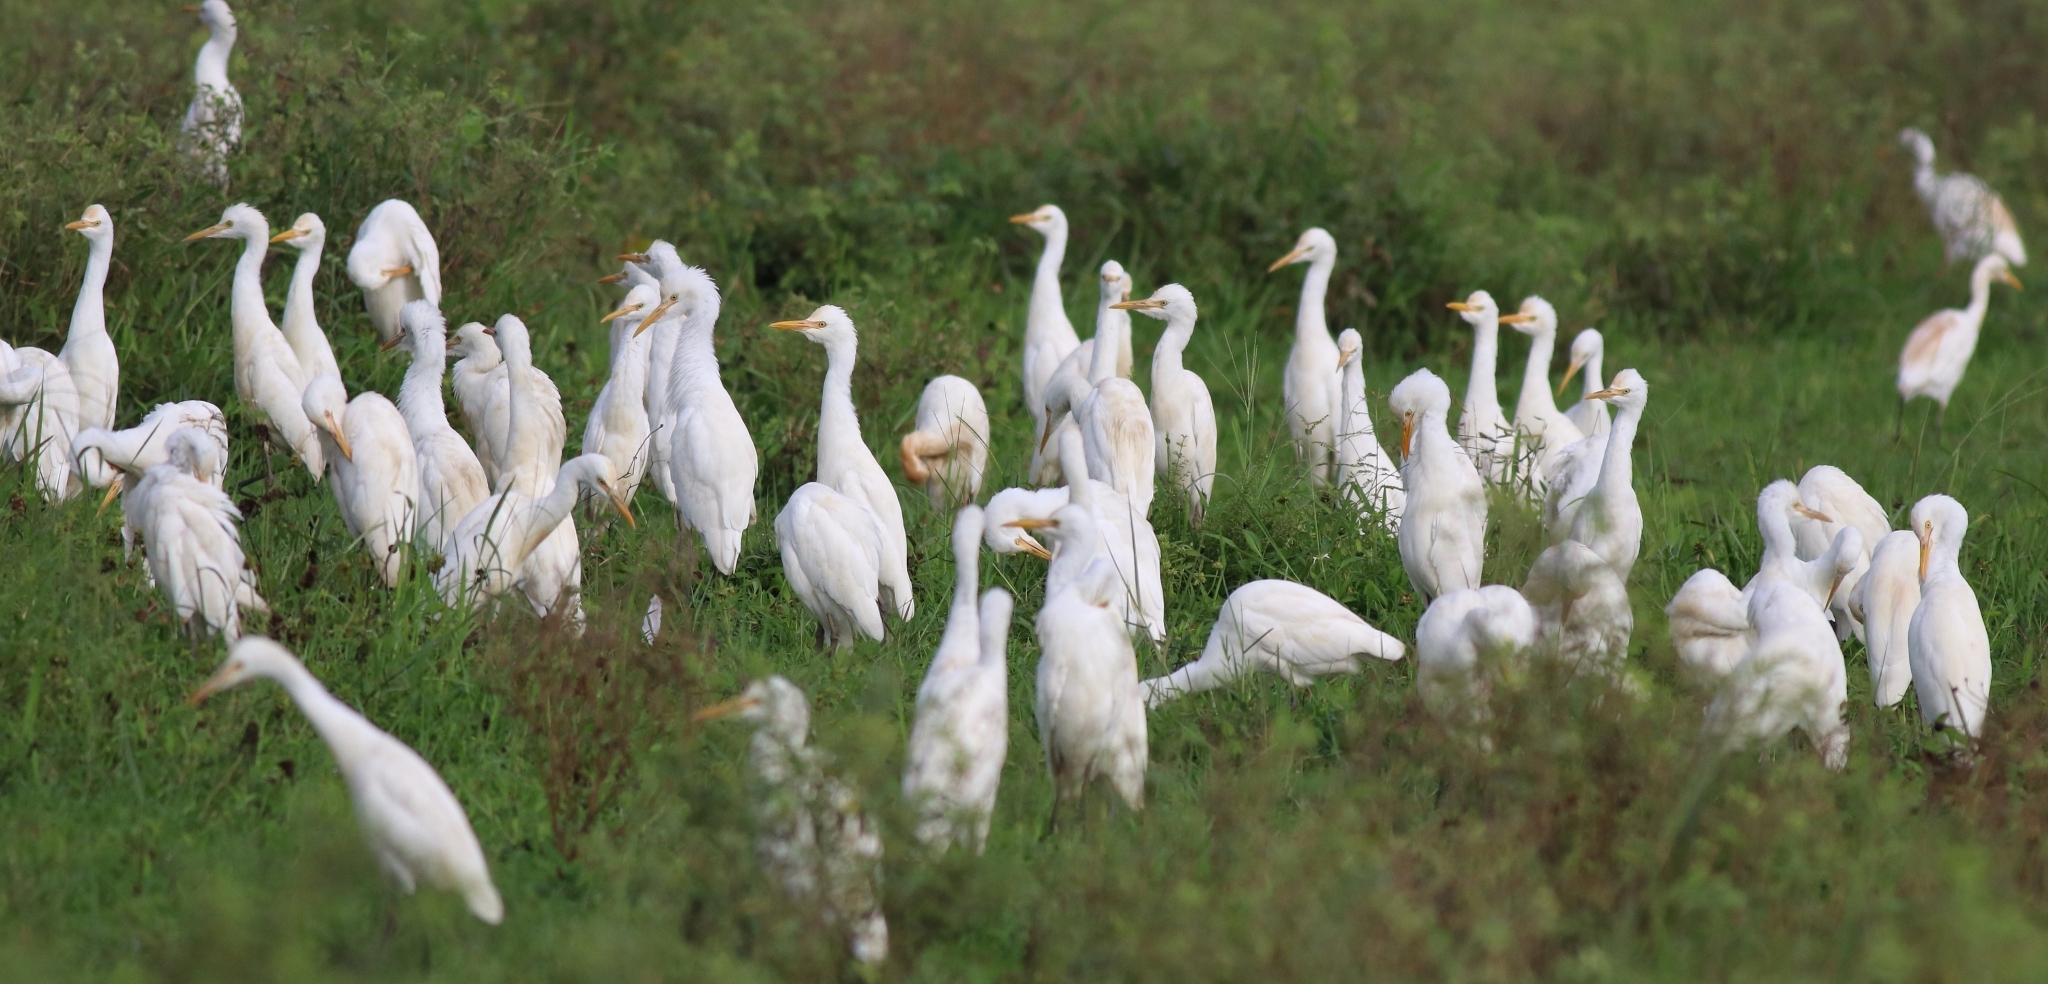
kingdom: Animalia
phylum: Chordata
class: Aves
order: Pelecaniformes
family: Ardeidae
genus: Bubulcus
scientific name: Bubulcus coromandus
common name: Eastern cattle egret
